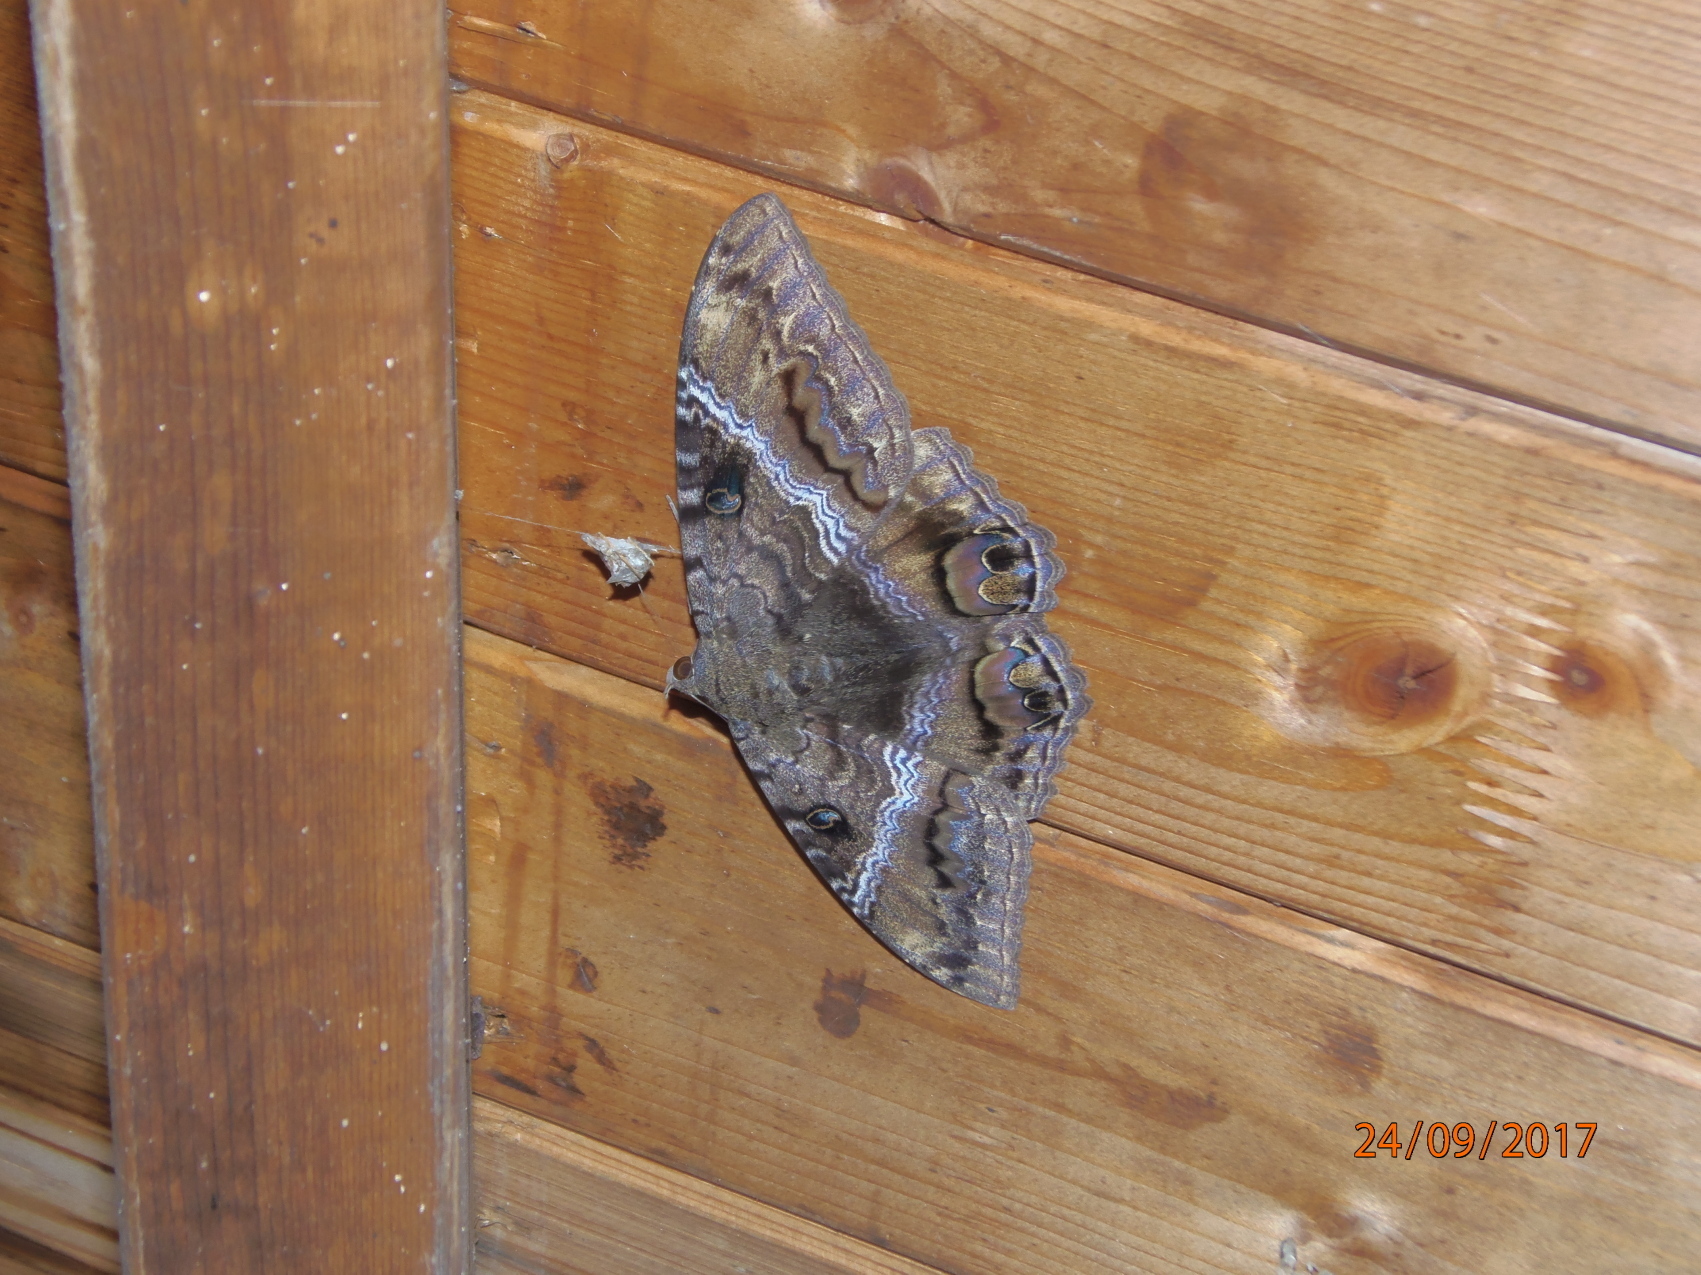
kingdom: Animalia
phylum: Arthropoda
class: Insecta
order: Lepidoptera
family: Erebidae
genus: Ascalapha
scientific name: Ascalapha odorata
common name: Black witch
